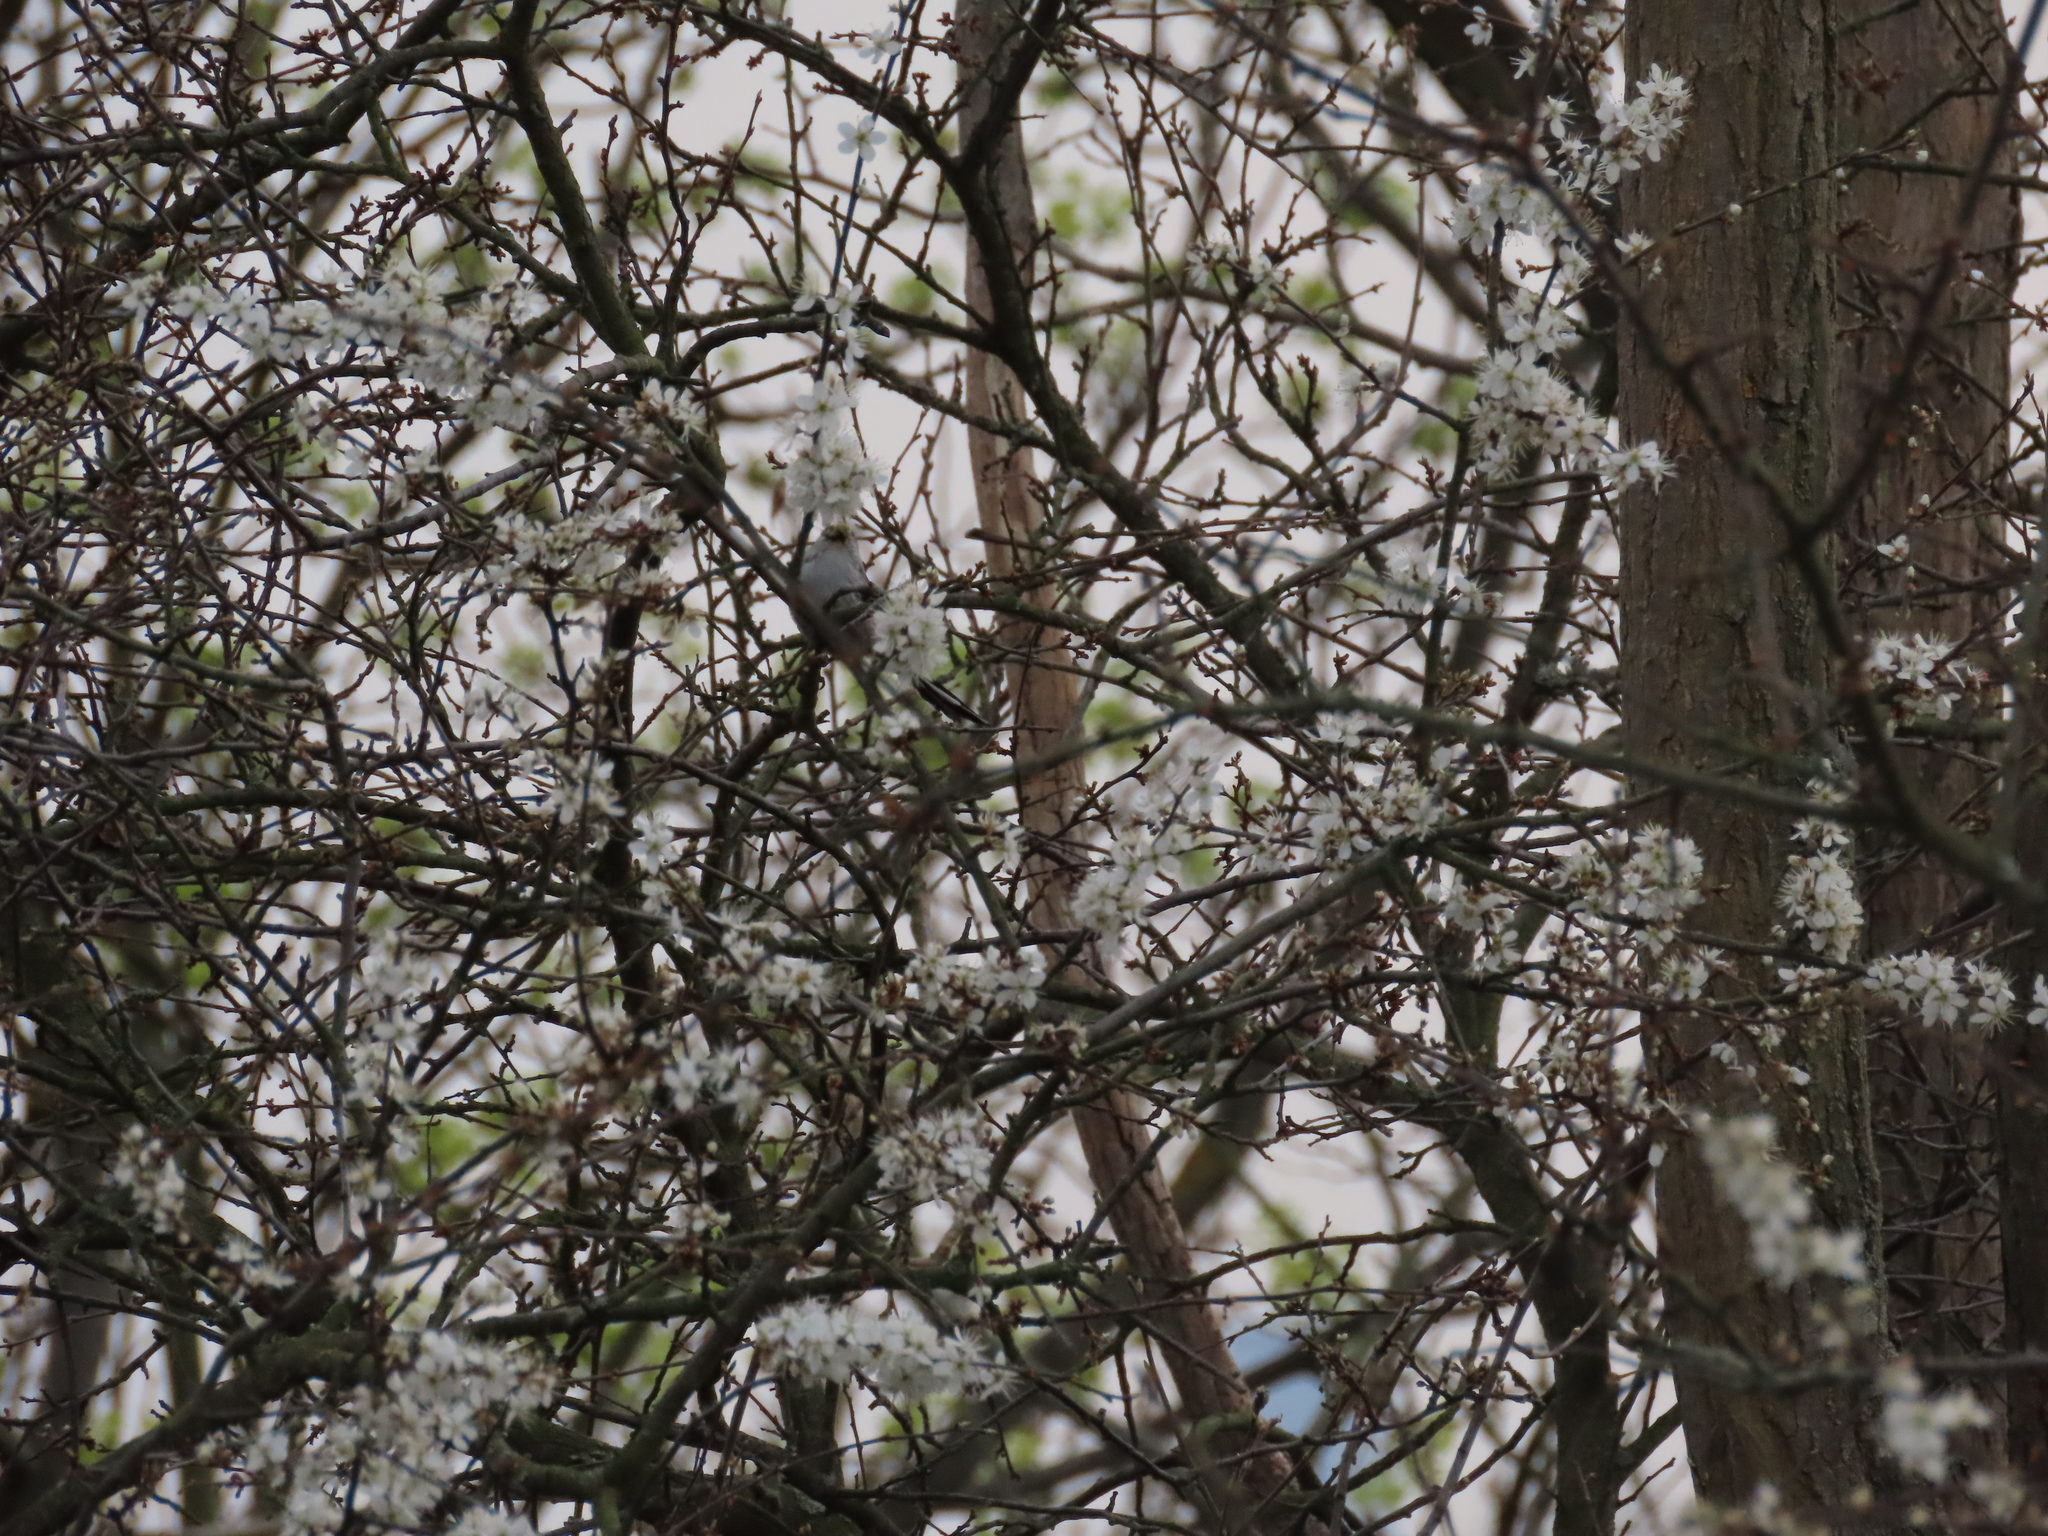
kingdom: Animalia
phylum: Chordata
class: Aves
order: Passeriformes
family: Aegithalidae
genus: Aegithalos
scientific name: Aegithalos caudatus
